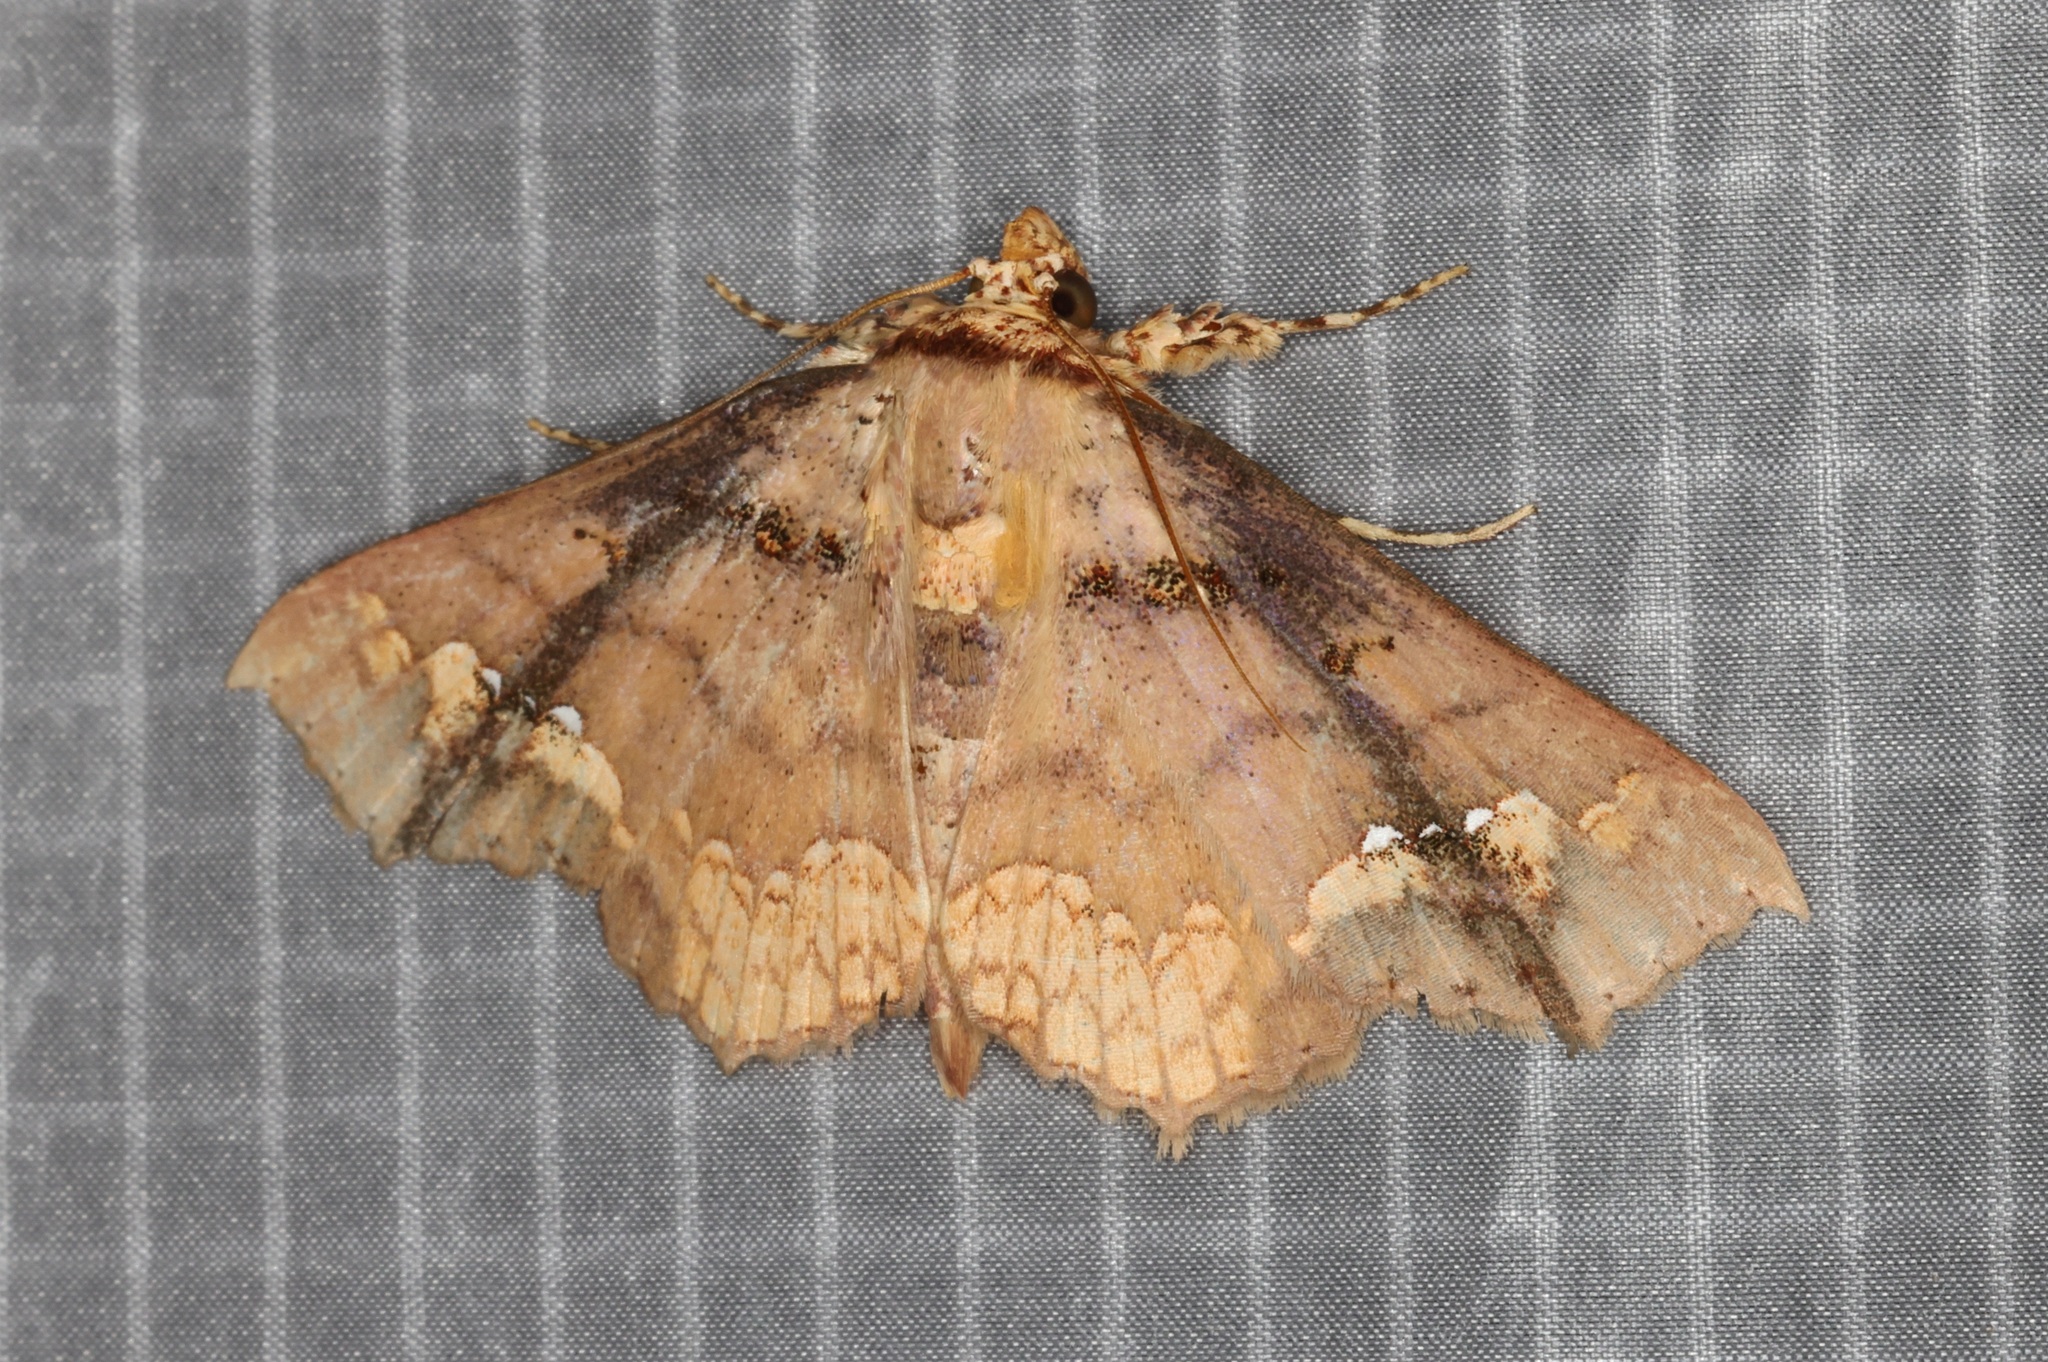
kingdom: Animalia
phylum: Arthropoda
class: Insecta
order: Lepidoptera
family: Erebidae
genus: Lopharthrum
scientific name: Lopharthrum comprimens
